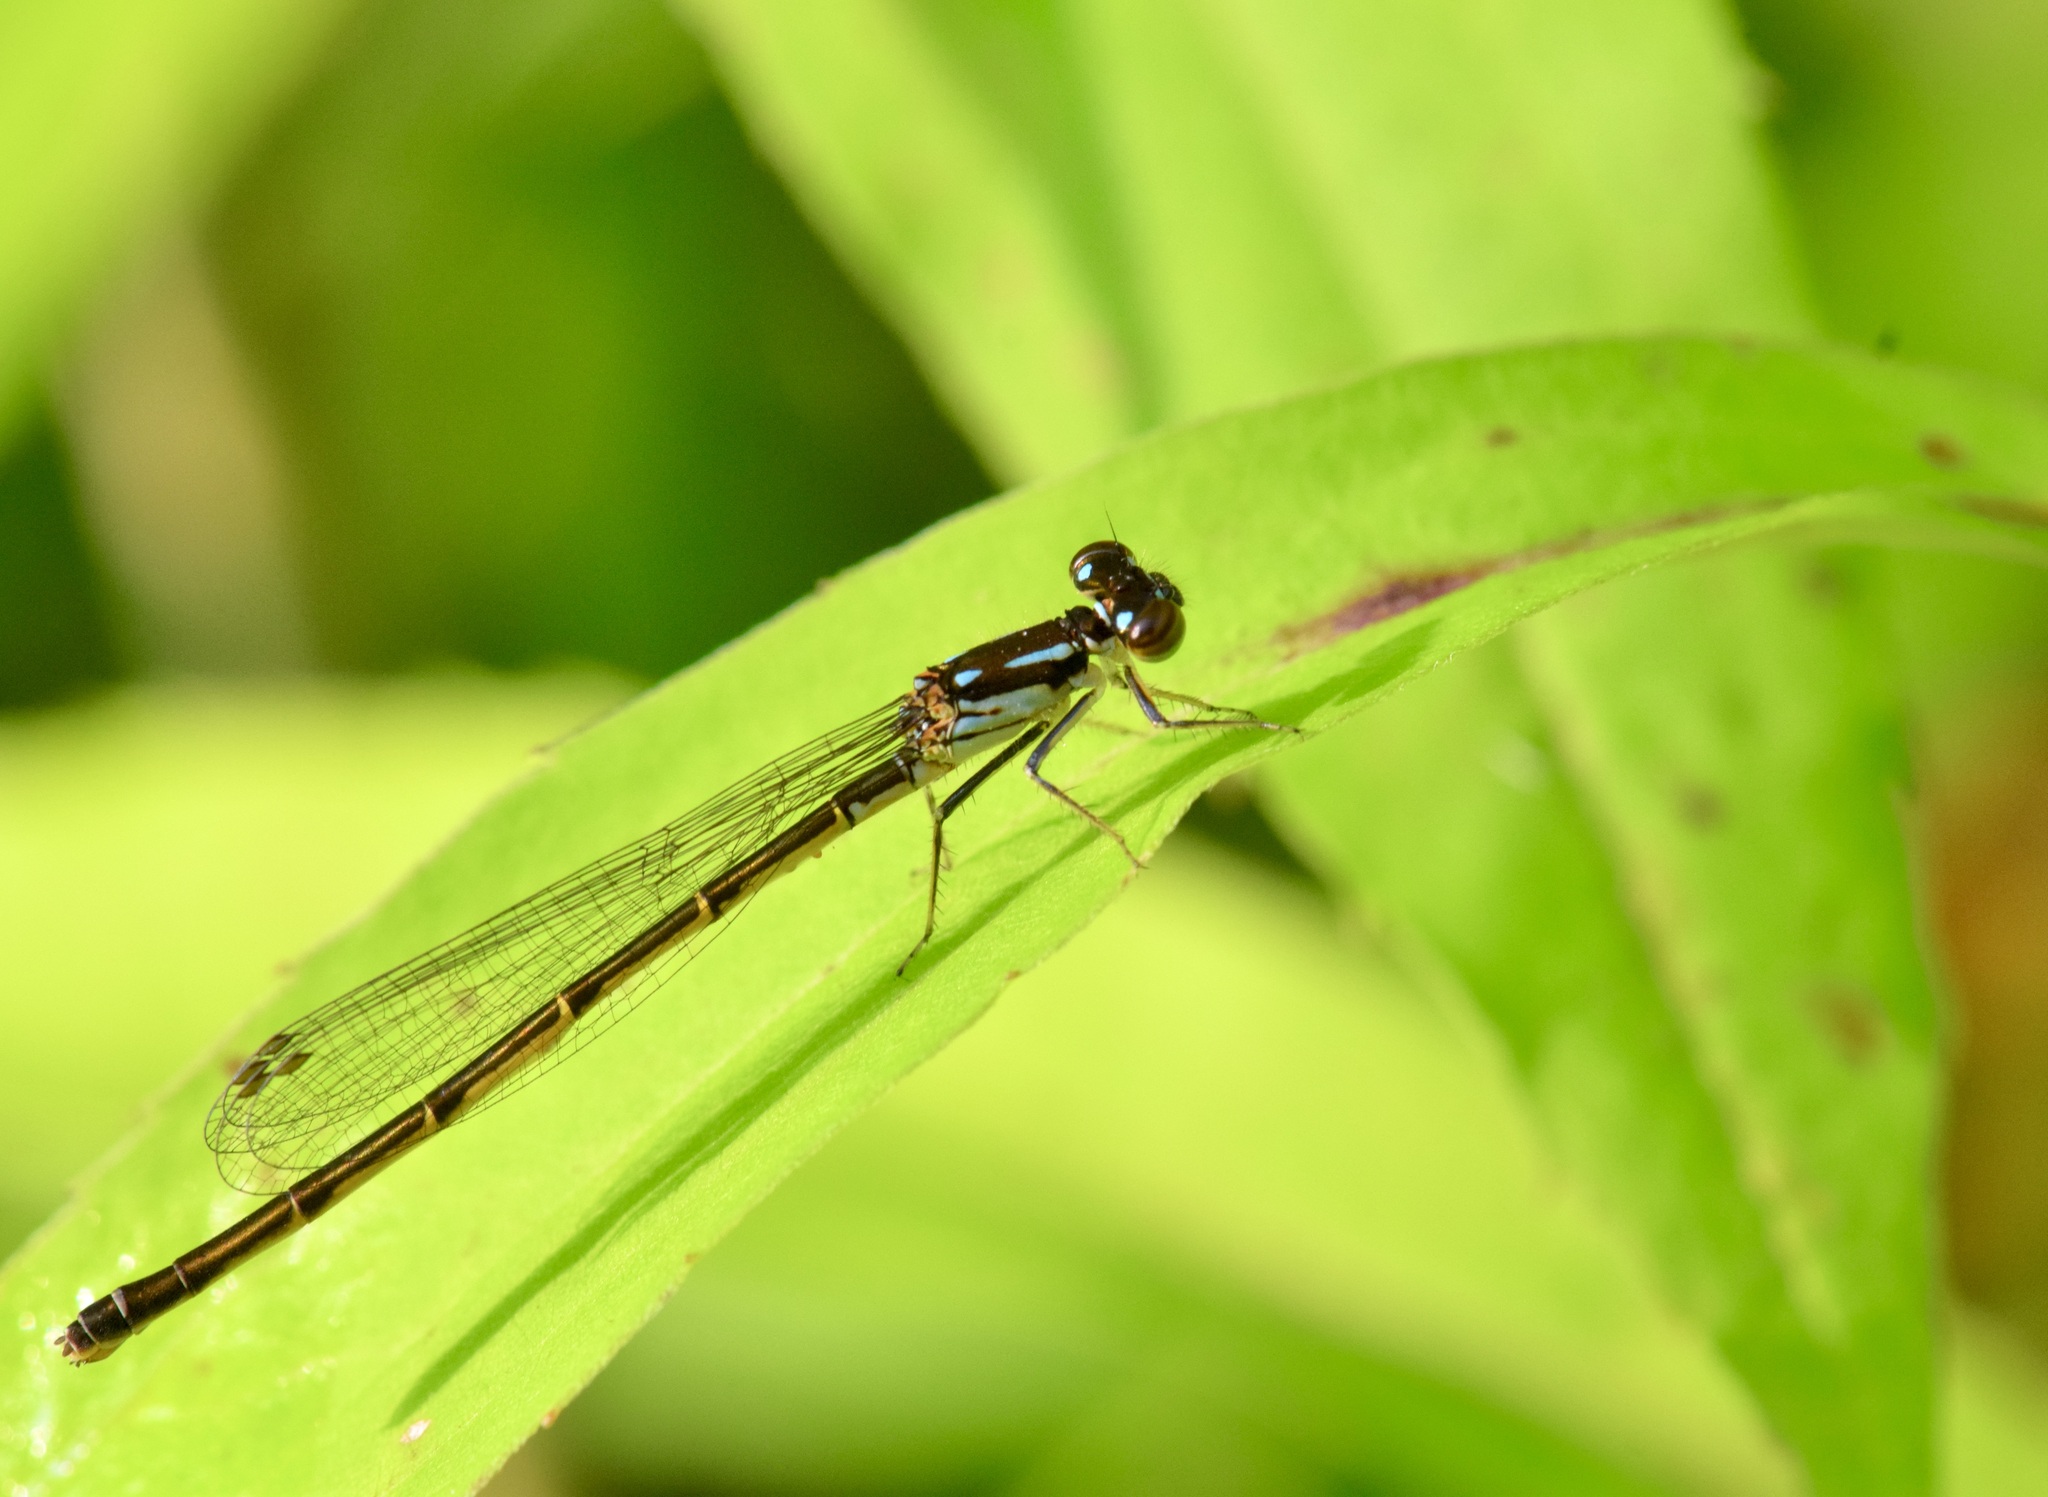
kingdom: Animalia
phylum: Arthropoda
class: Insecta
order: Odonata
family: Coenagrionidae
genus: Ischnura
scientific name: Ischnura posita
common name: Fragile forktail
